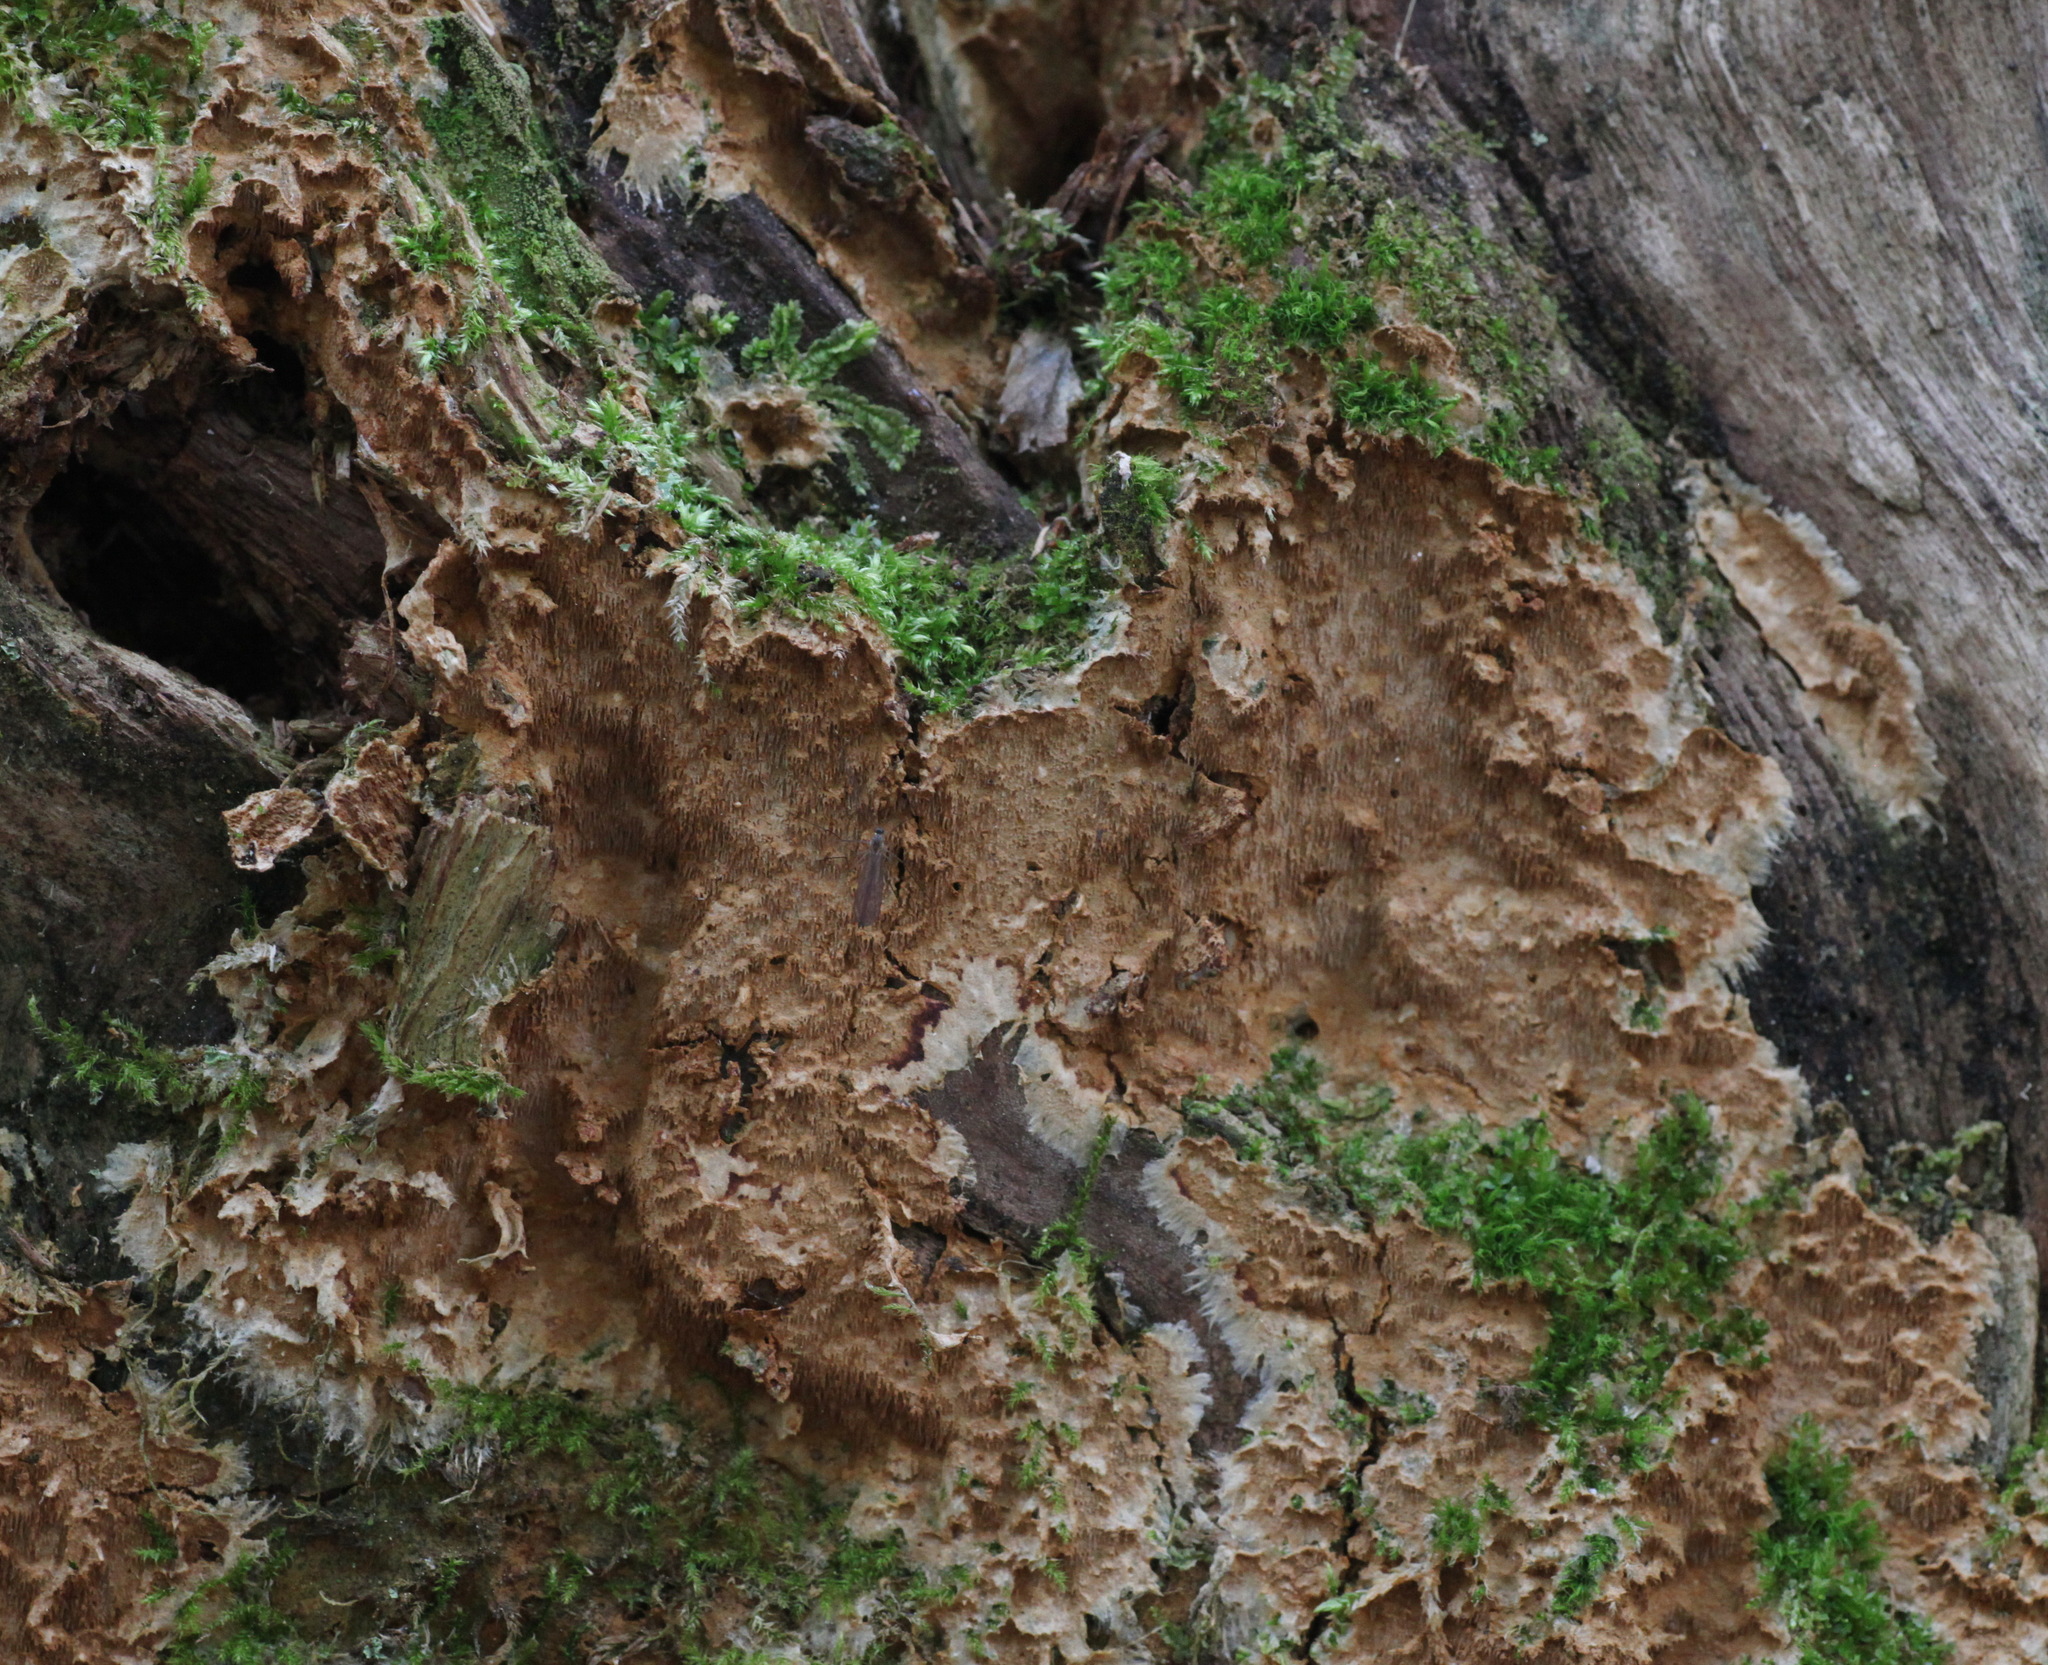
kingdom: Fungi
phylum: Basidiomycota
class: Agaricomycetes
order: Hymenochaetales
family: Hymenochaetaceae
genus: Asterodon
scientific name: Asterodon ferruginosus
